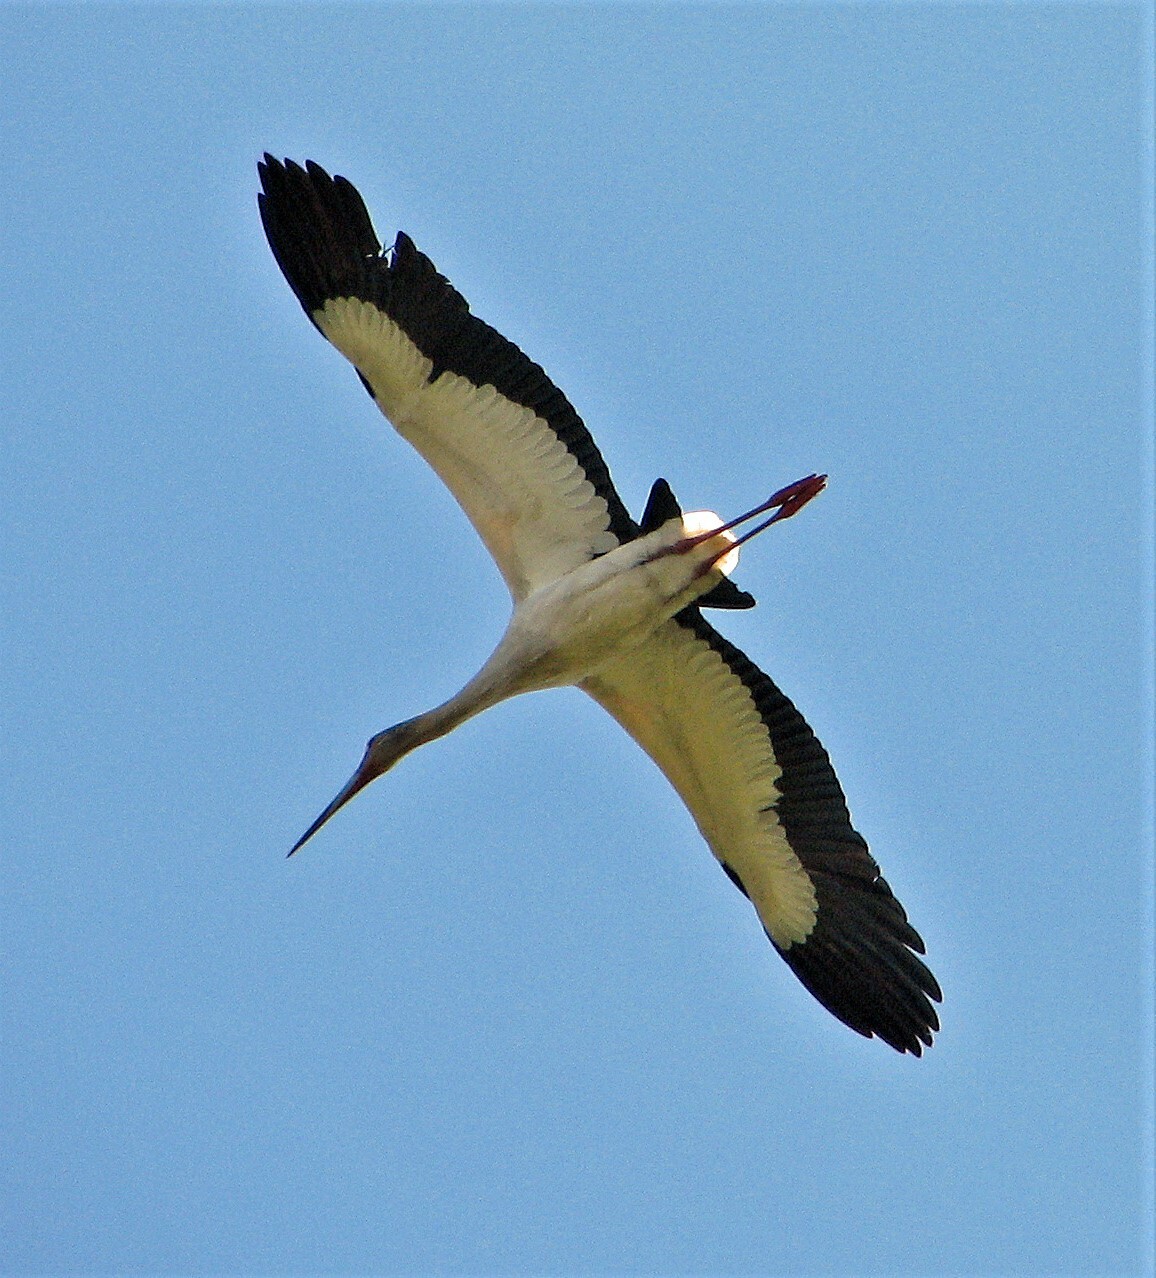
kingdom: Animalia
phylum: Chordata
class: Aves
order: Ciconiiformes
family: Ciconiidae
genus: Ciconia
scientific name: Ciconia maguari
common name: Maguari stork
